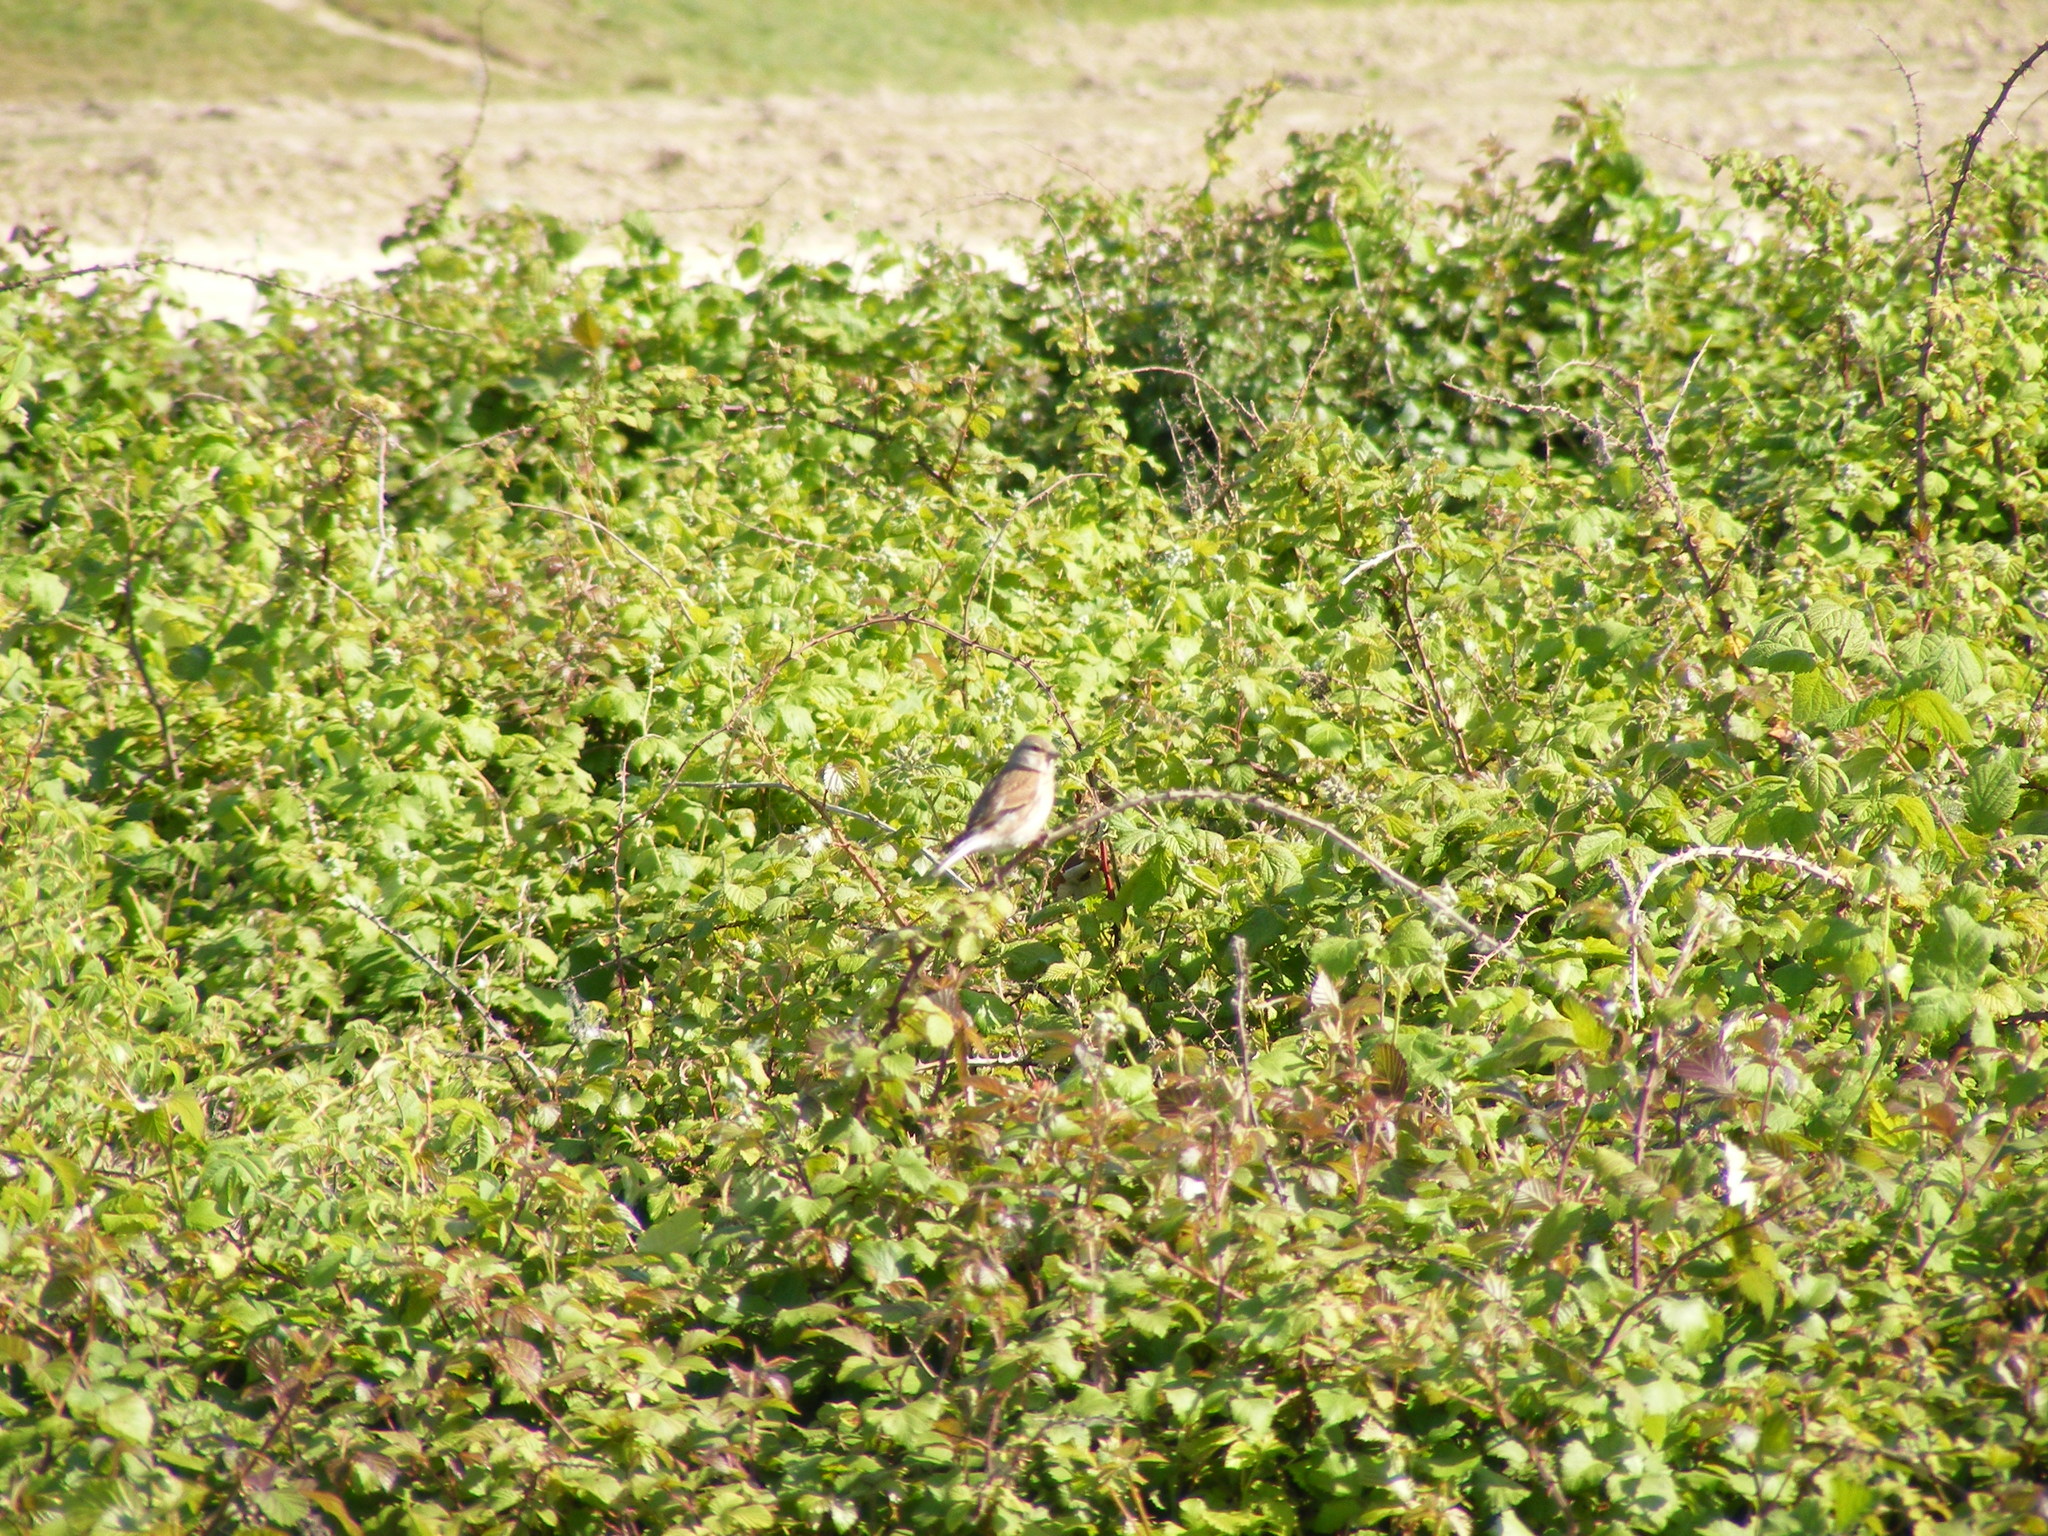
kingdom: Animalia
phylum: Chordata
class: Aves
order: Passeriformes
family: Fringillidae
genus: Linaria
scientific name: Linaria cannabina
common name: Common linnet
